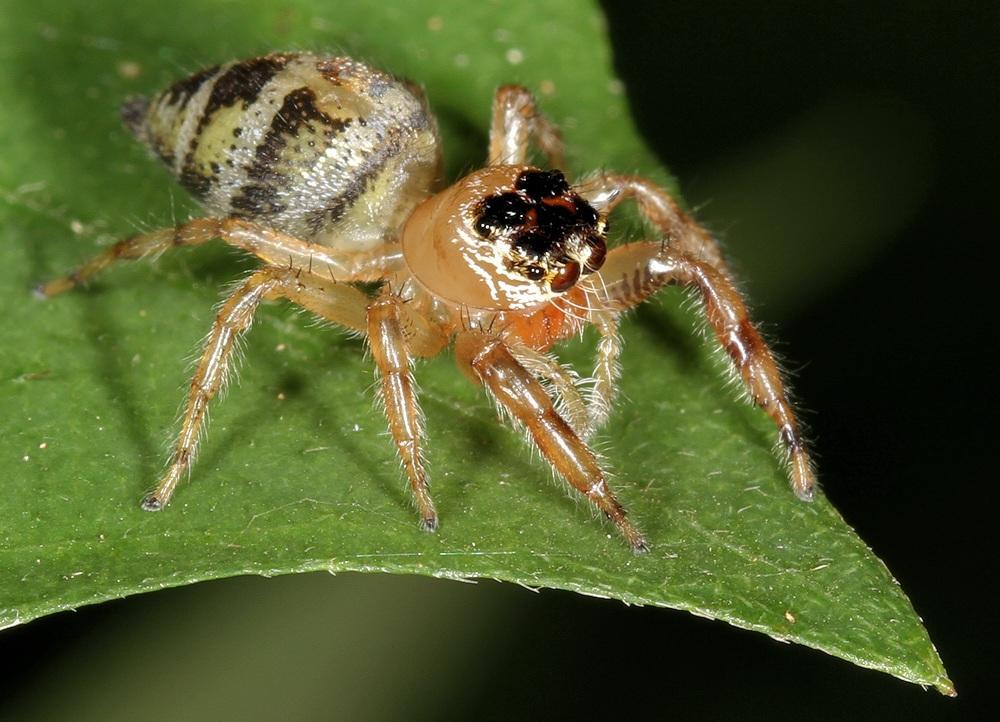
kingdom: Animalia
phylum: Arthropoda
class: Arachnida
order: Araneae
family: Salticidae
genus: Thyene
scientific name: Thyene natalii
